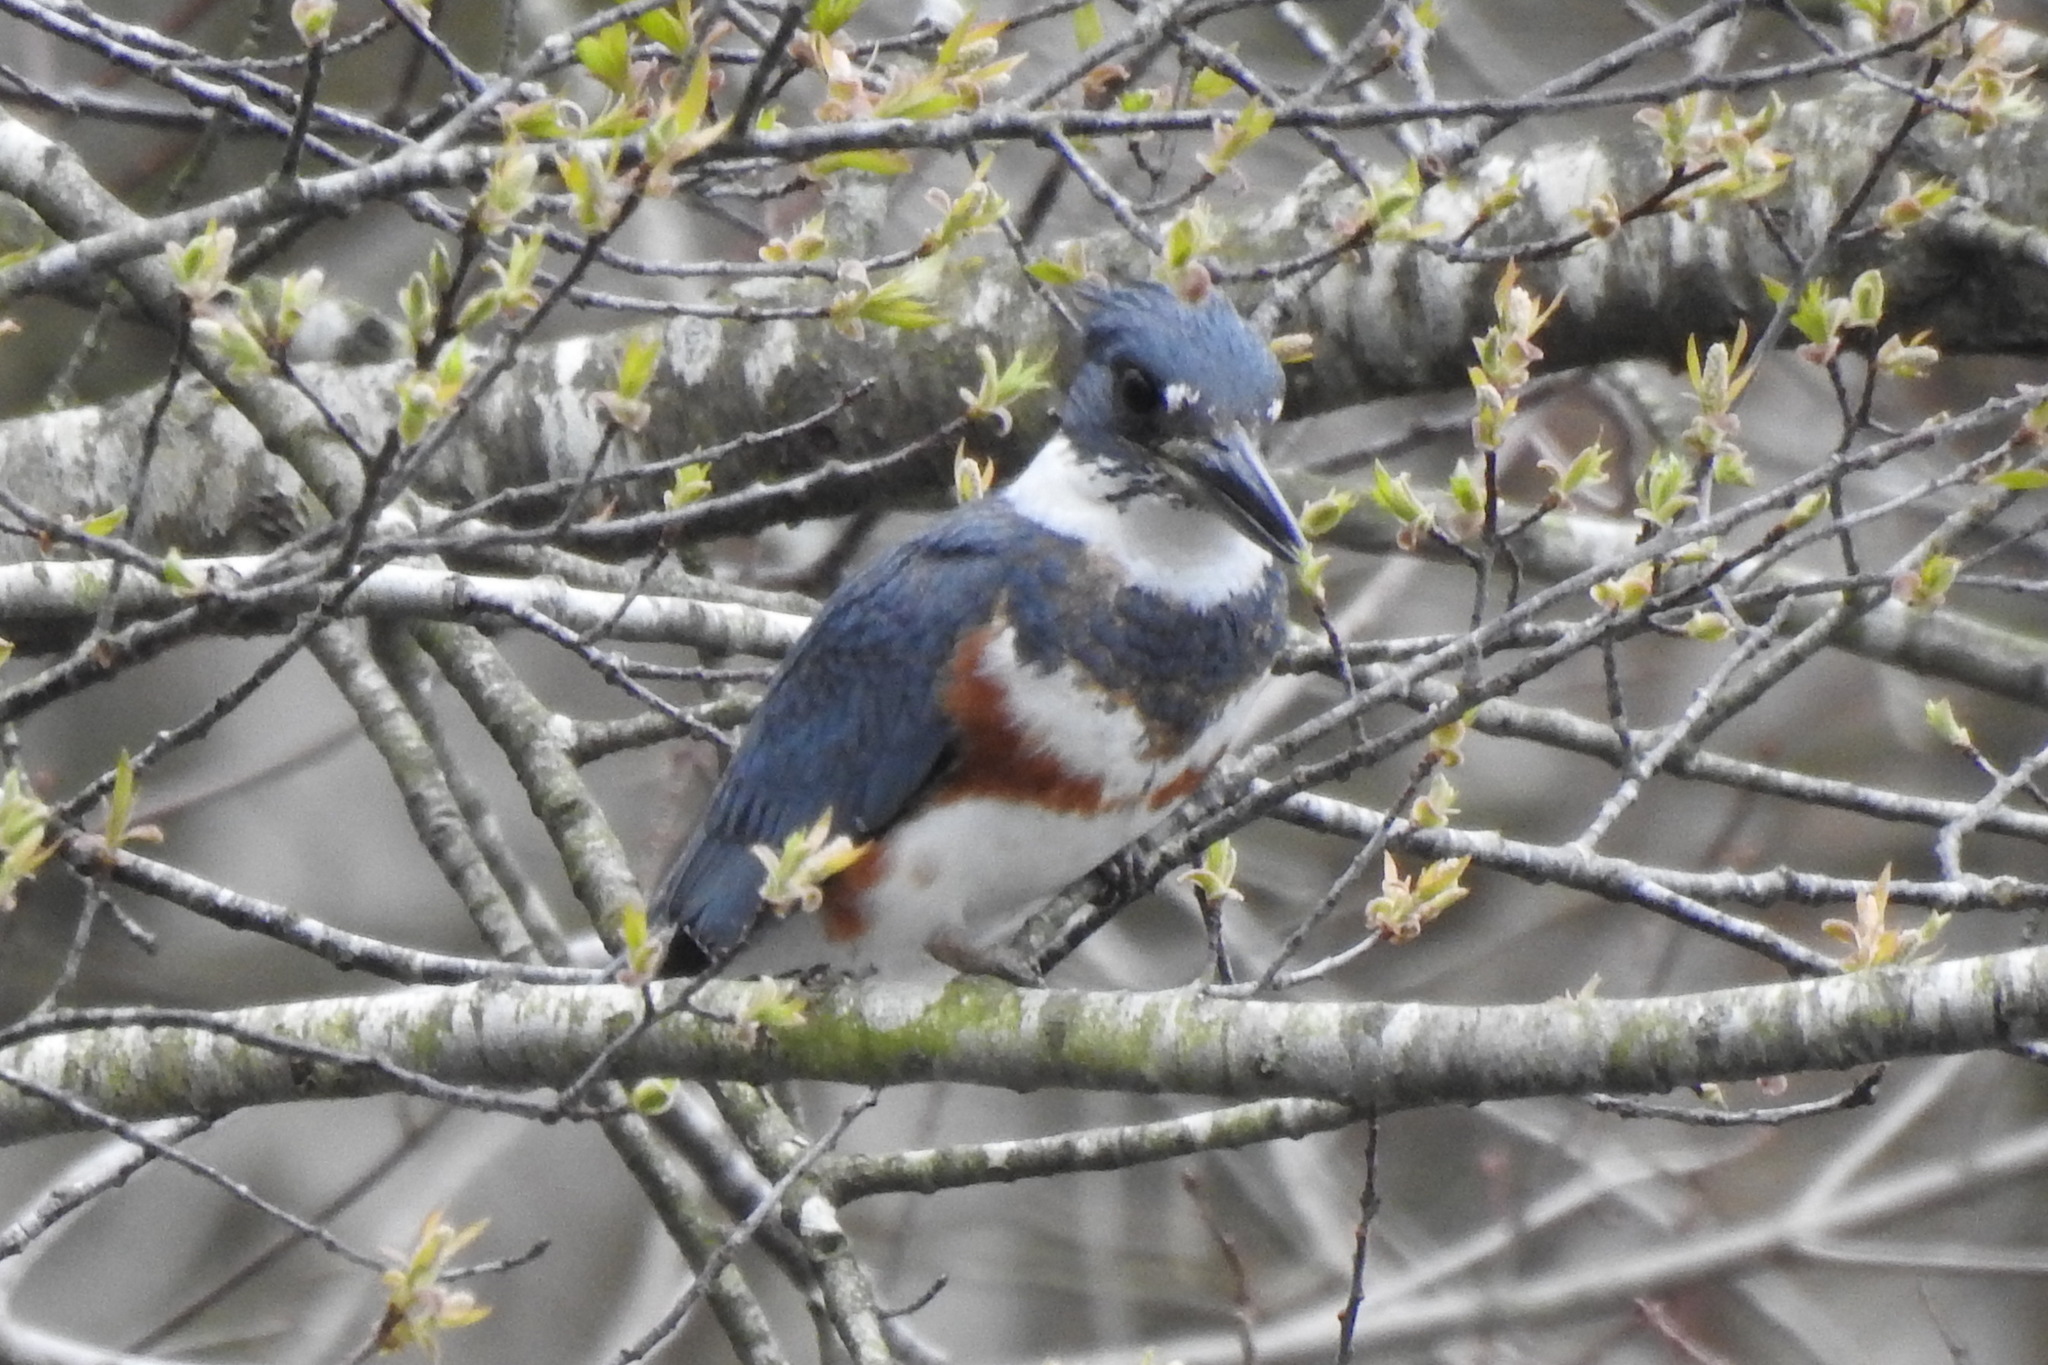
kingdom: Animalia
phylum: Chordata
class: Aves
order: Coraciiformes
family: Alcedinidae
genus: Megaceryle
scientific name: Megaceryle alcyon
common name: Belted kingfisher
